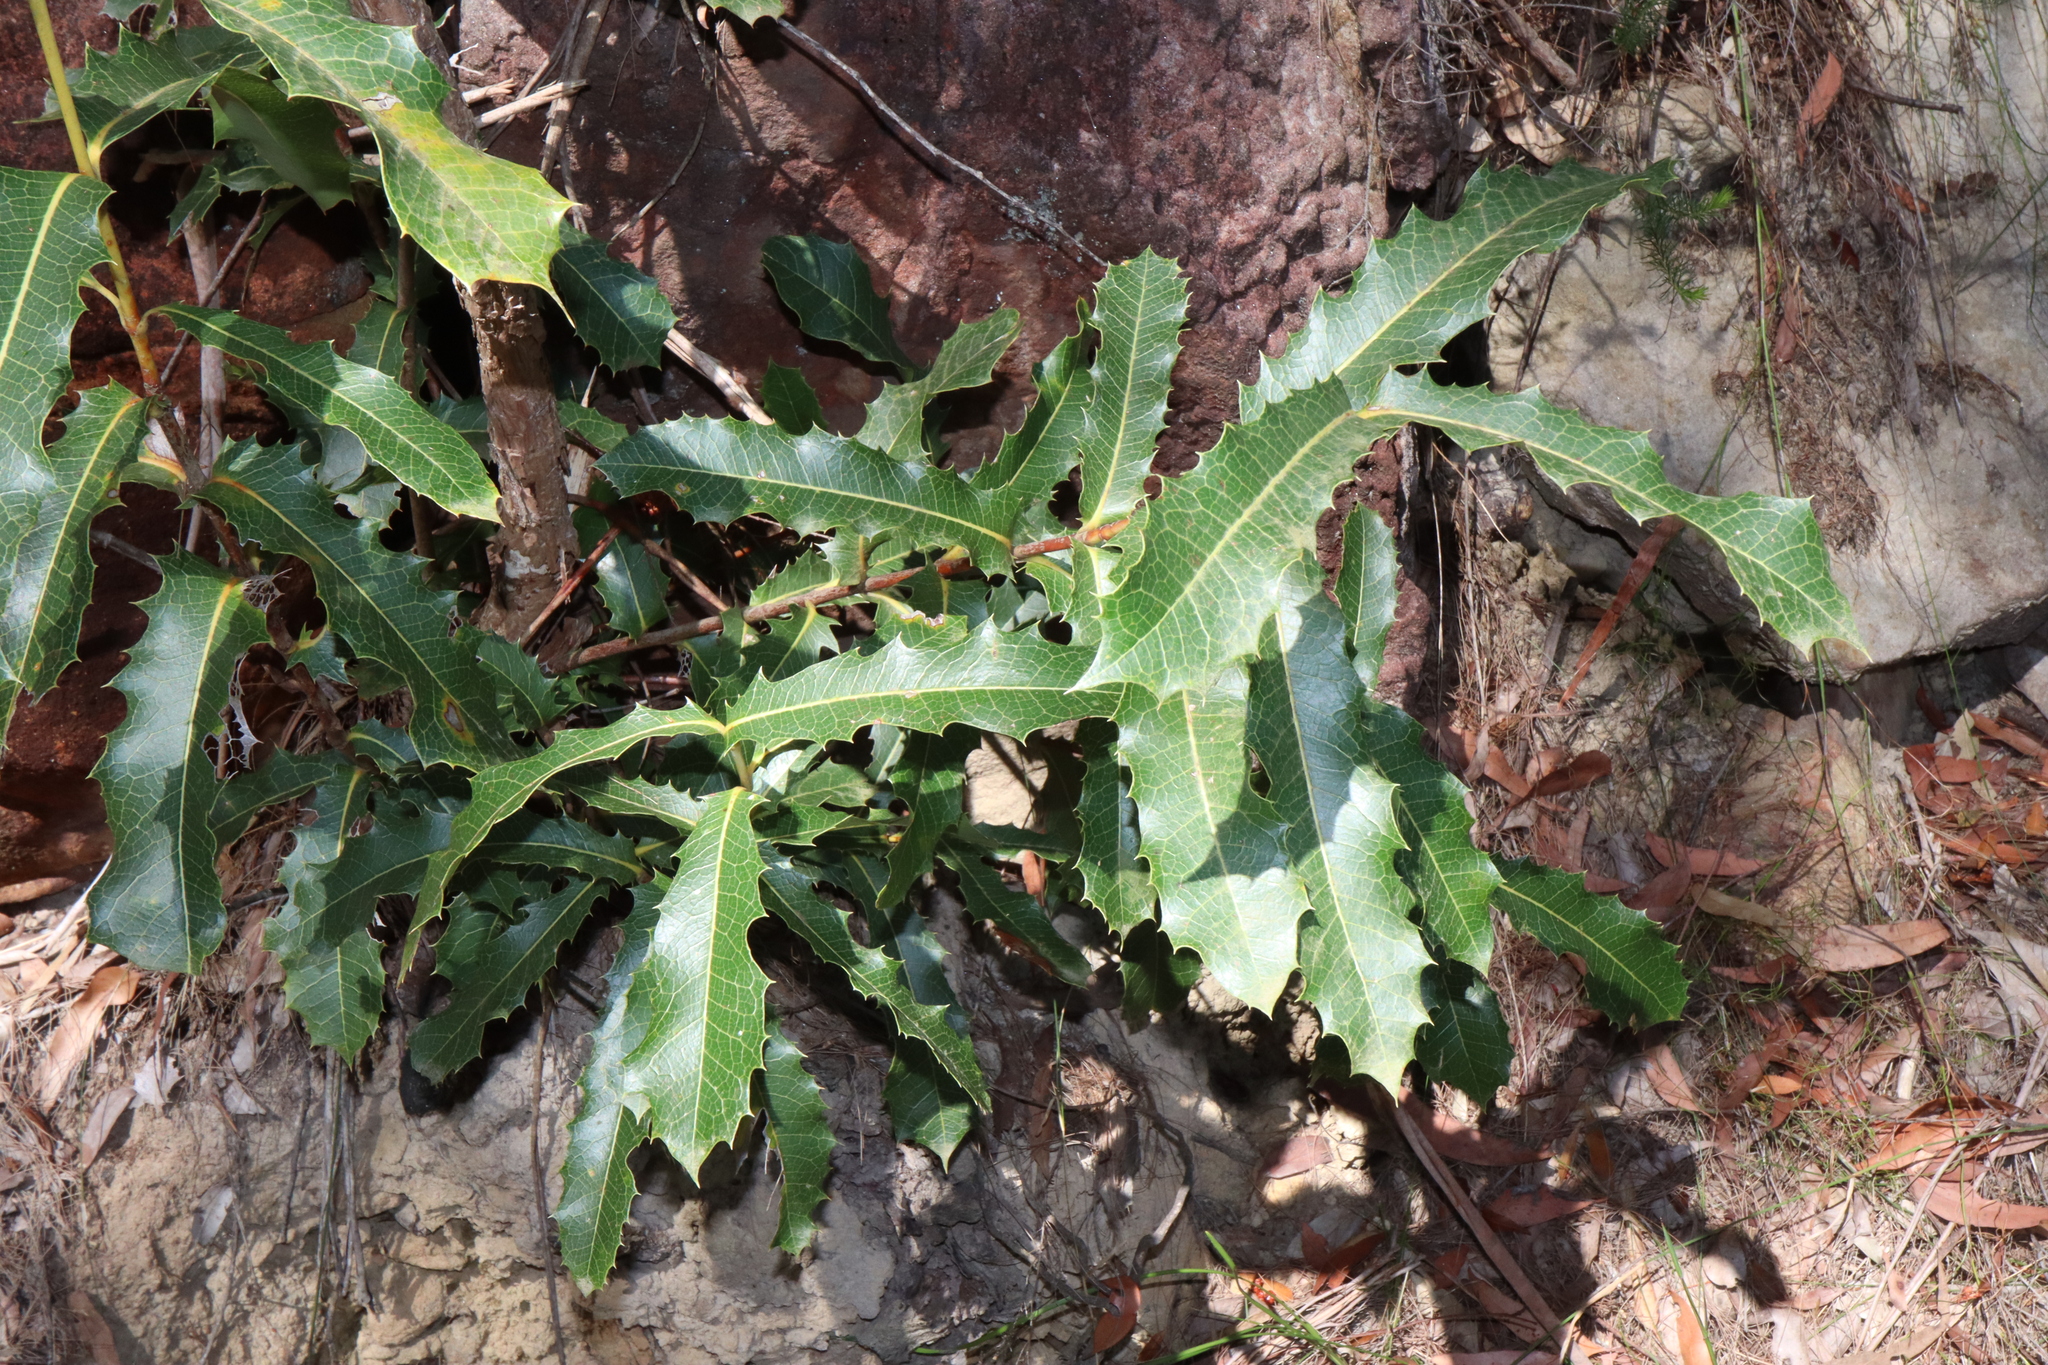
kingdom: Plantae
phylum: Tracheophyta
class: Magnoliopsida
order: Proteales
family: Proteaceae
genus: Xylomelum
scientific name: Xylomelum pyriforme
